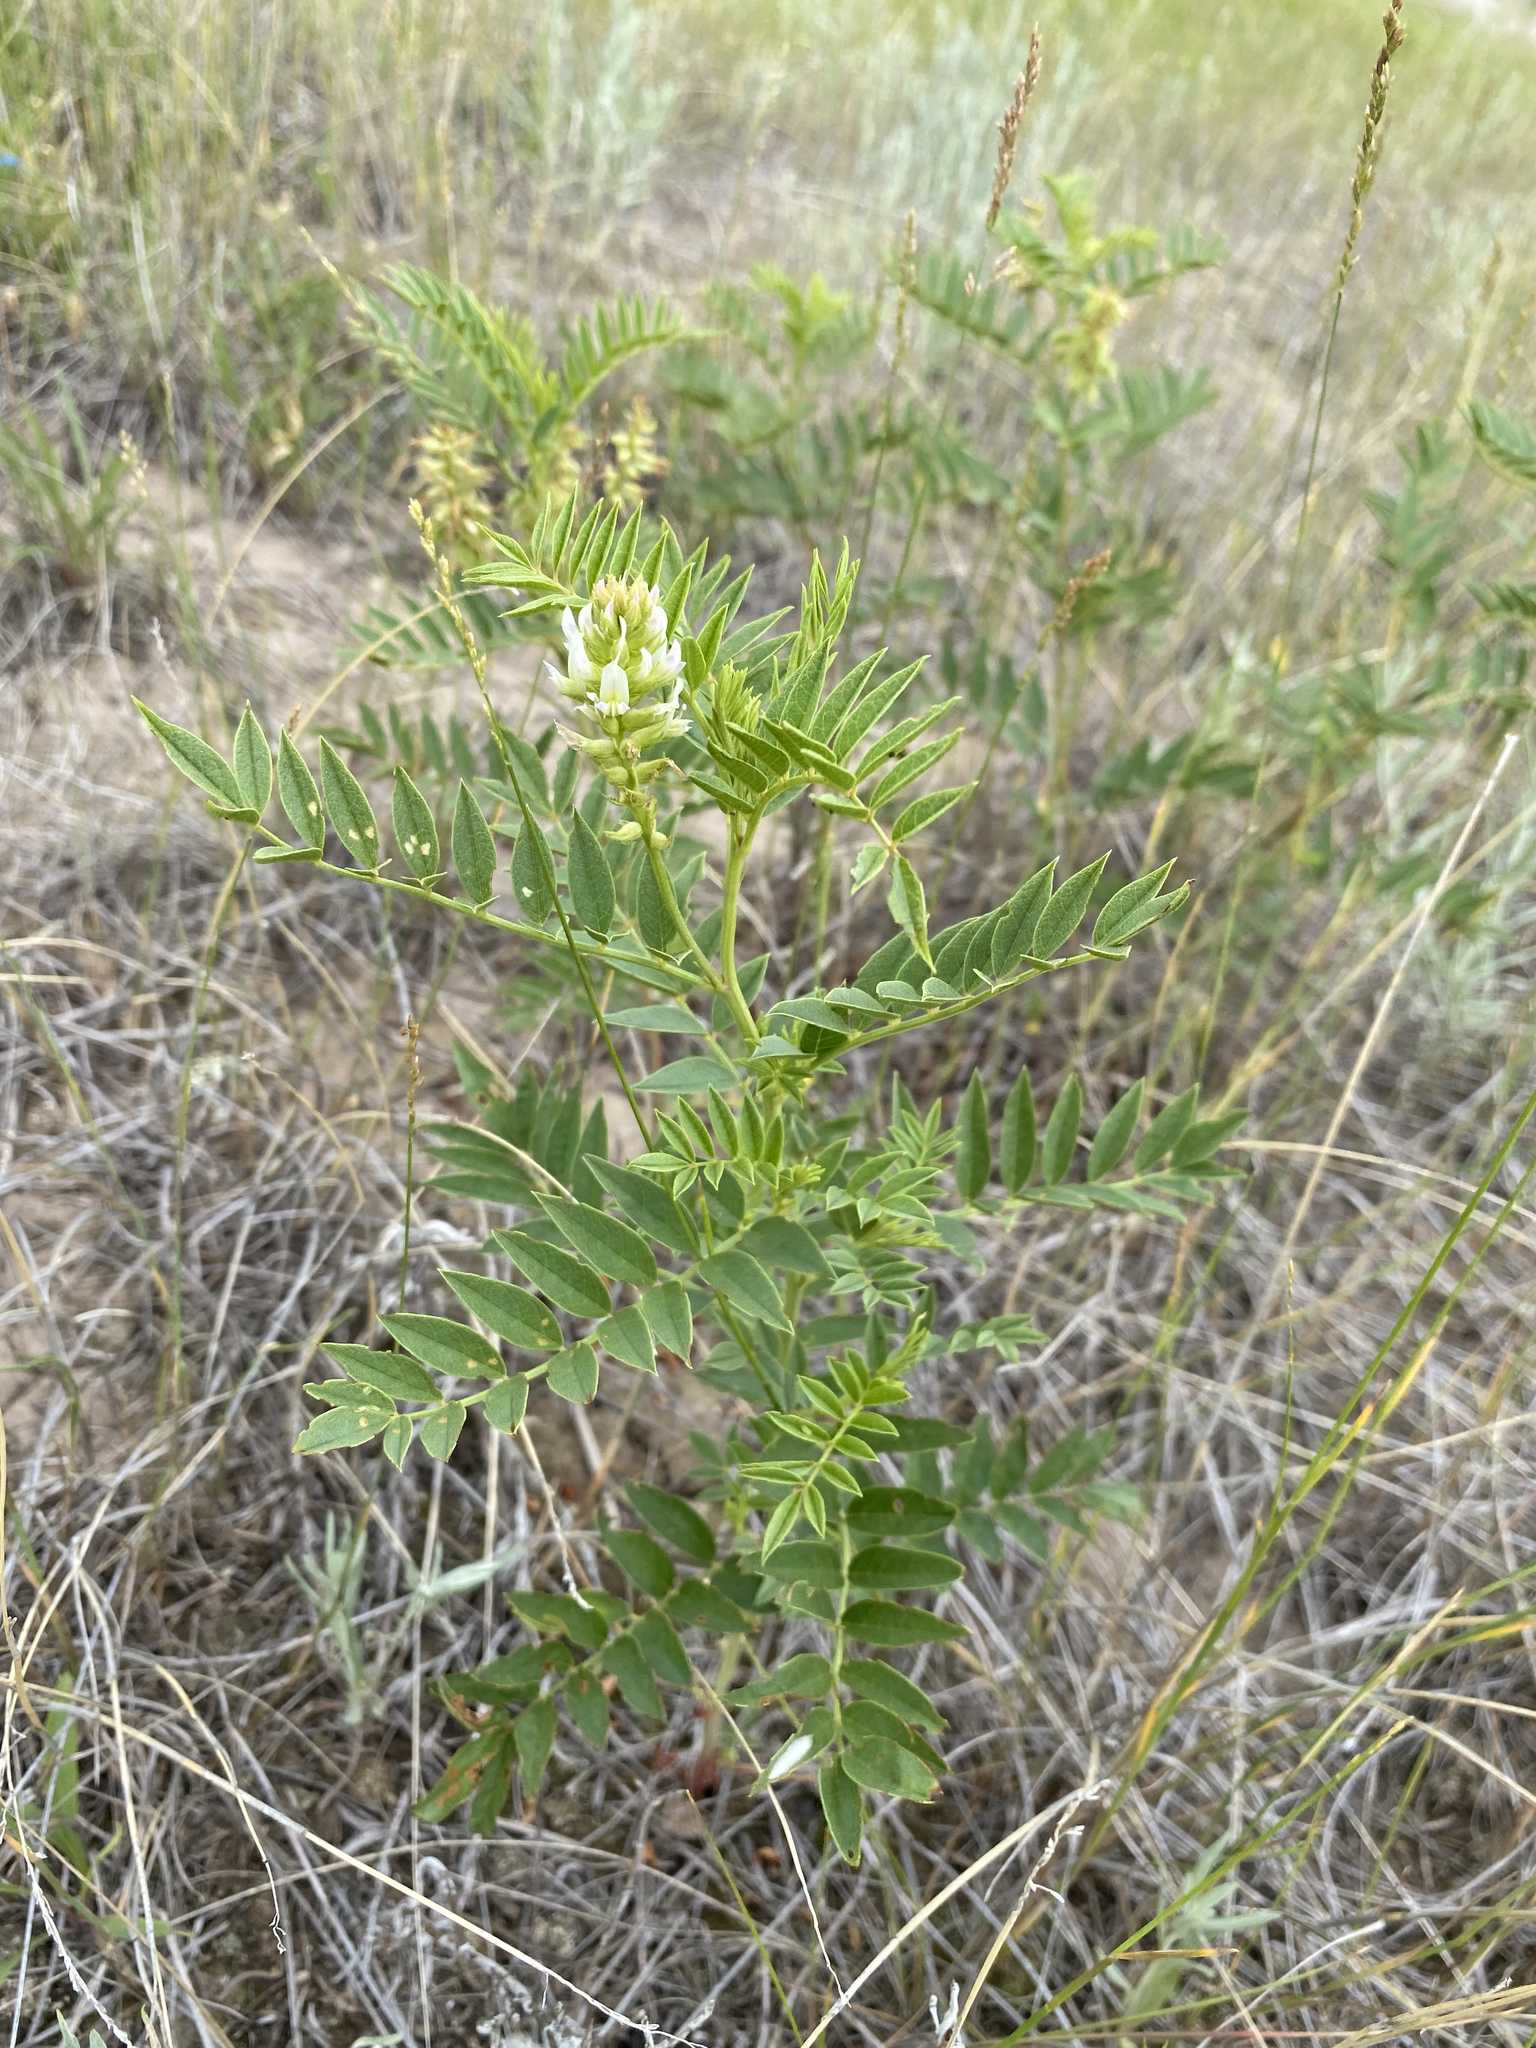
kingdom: Plantae
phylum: Tracheophyta
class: Magnoliopsida
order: Fabales
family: Fabaceae
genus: Glycyrrhiza
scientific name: Glycyrrhiza lepidota
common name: American liquorice
